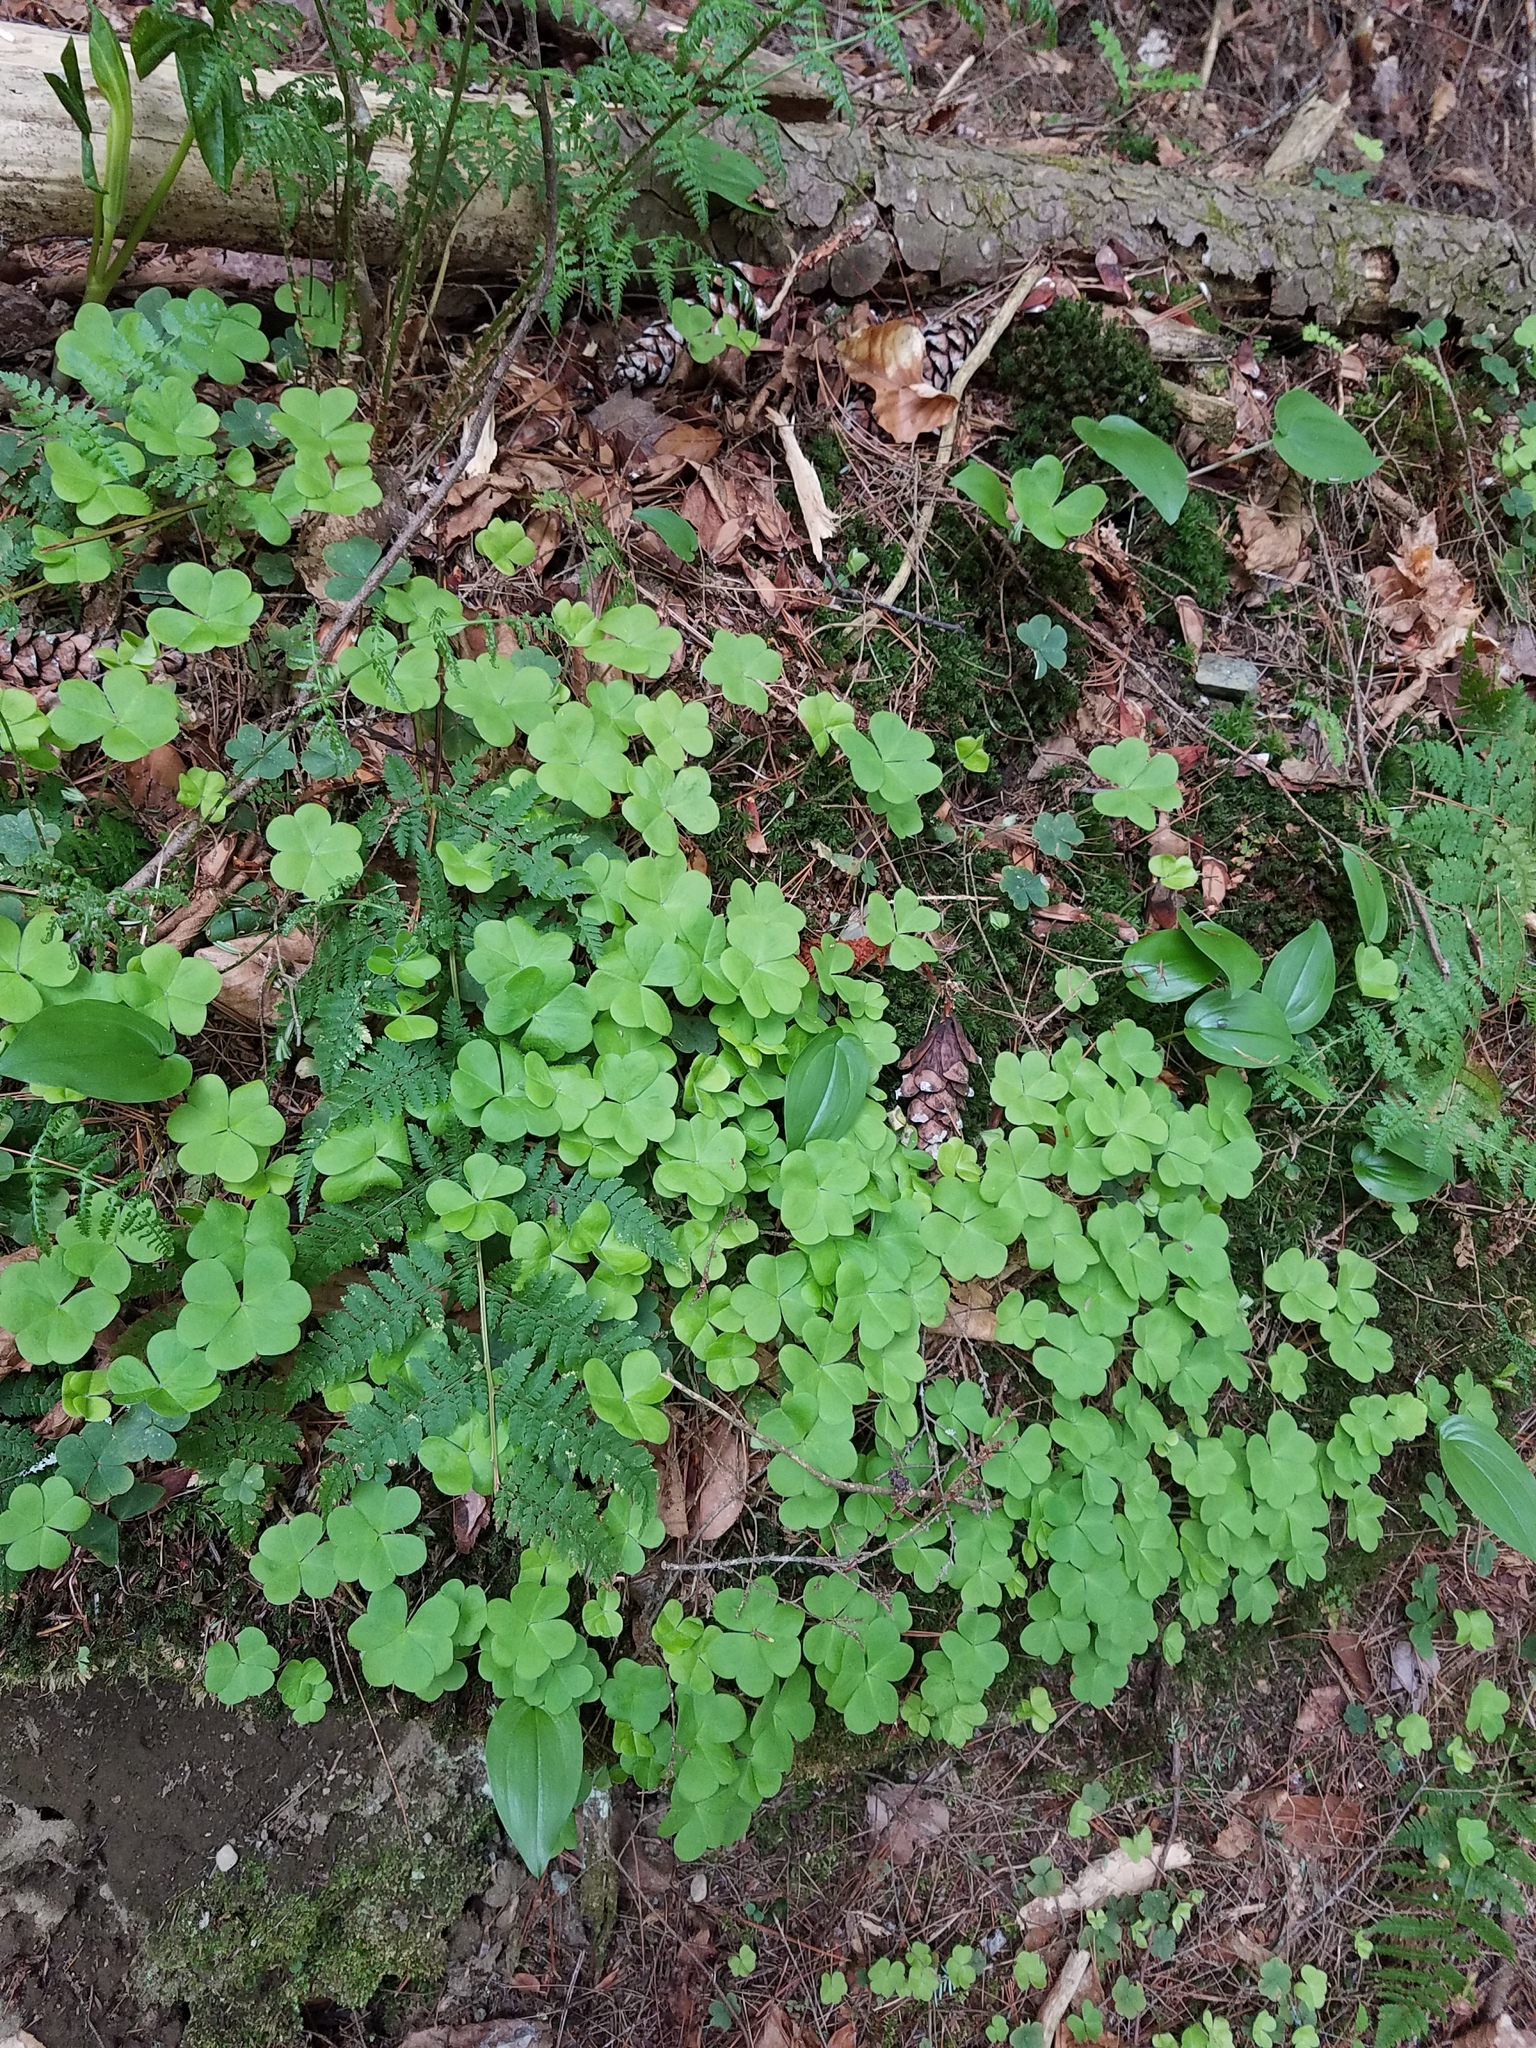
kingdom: Plantae
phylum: Tracheophyta
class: Magnoliopsida
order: Oxalidales
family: Oxalidaceae
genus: Oxalis
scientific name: Oxalis montana
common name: American wood-sorrel
